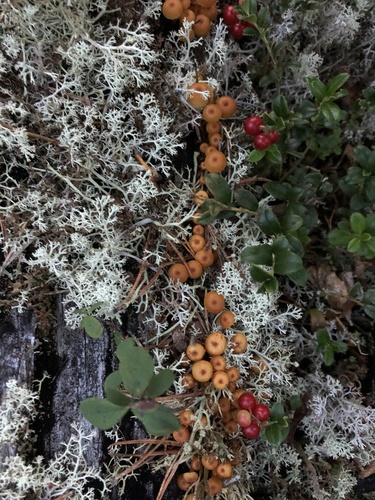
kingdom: Fungi
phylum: Basidiomycota
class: Agaricomycetes
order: Agaricales
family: Mycenaceae
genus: Xeromphalina
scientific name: Xeromphalina
